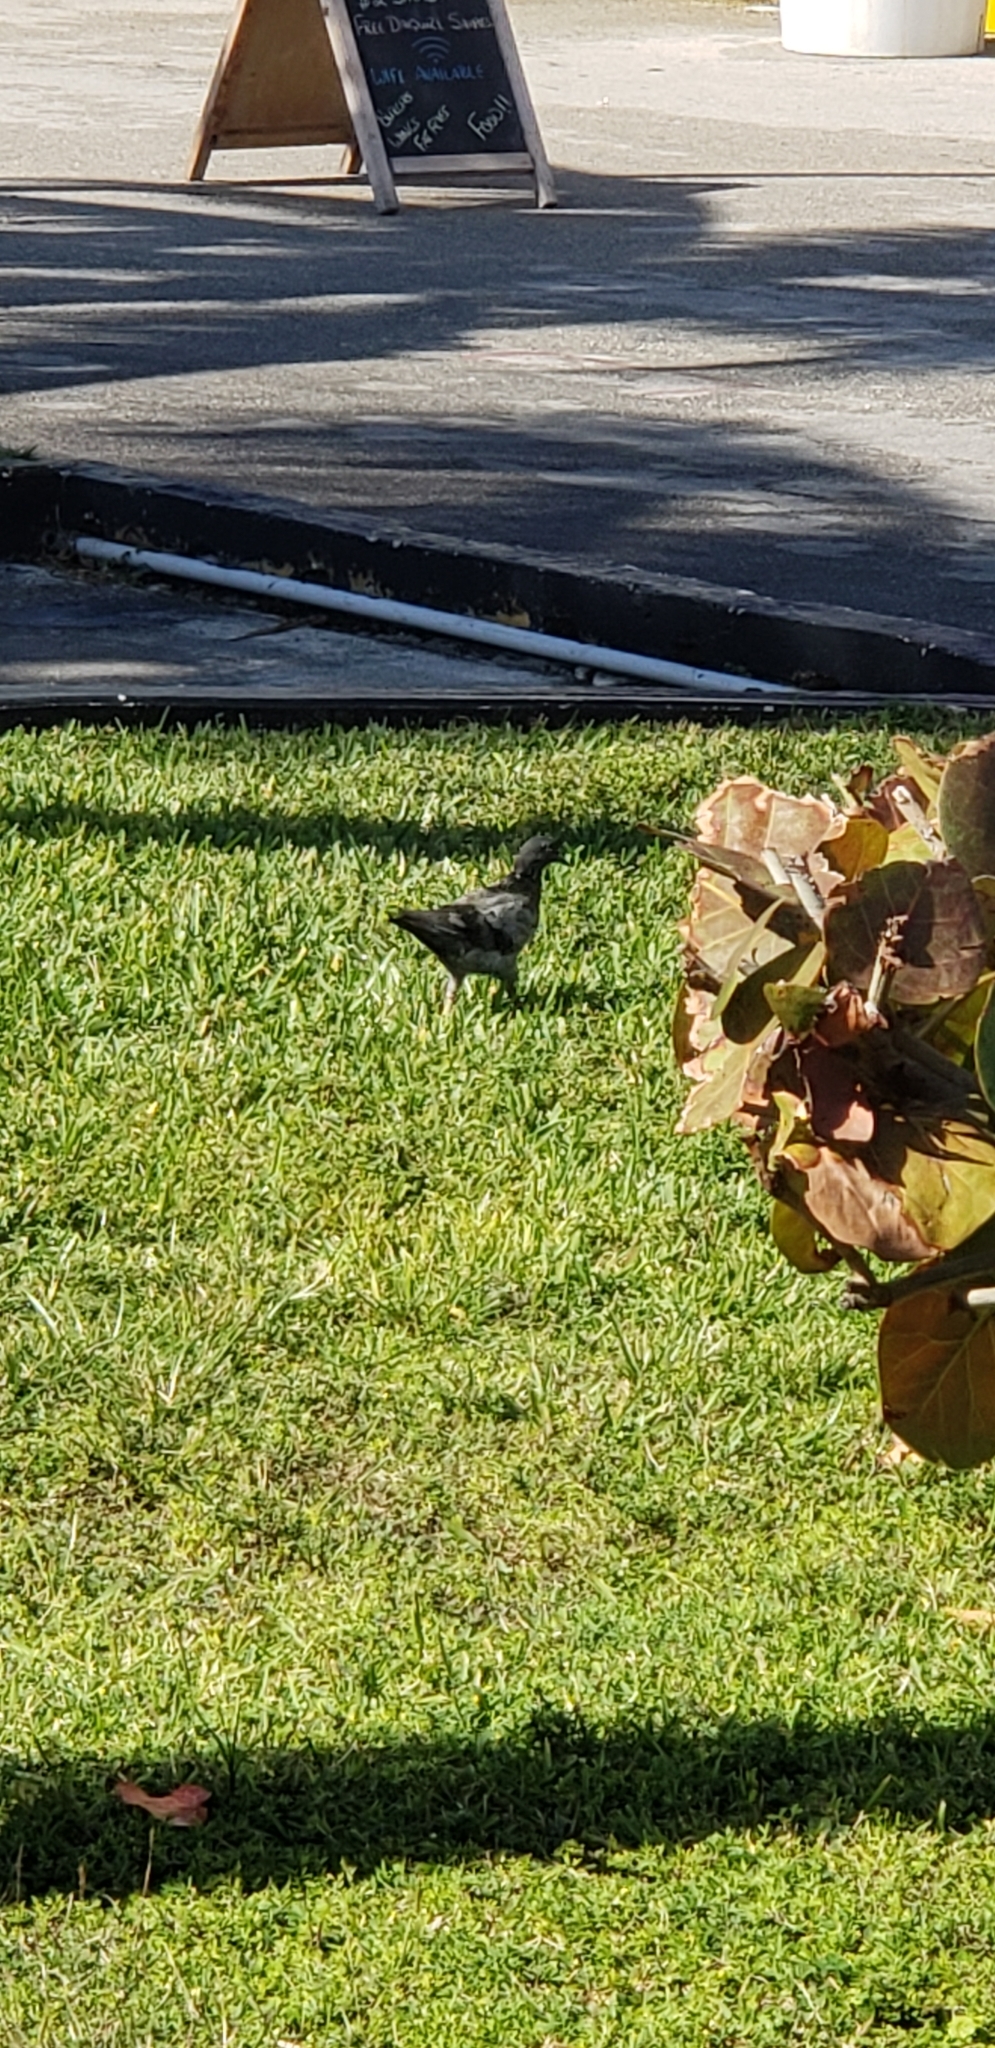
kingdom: Animalia
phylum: Chordata
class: Aves
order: Columbiformes
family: Columbidae
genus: Columba
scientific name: Columba livia
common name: Rock pigeon
